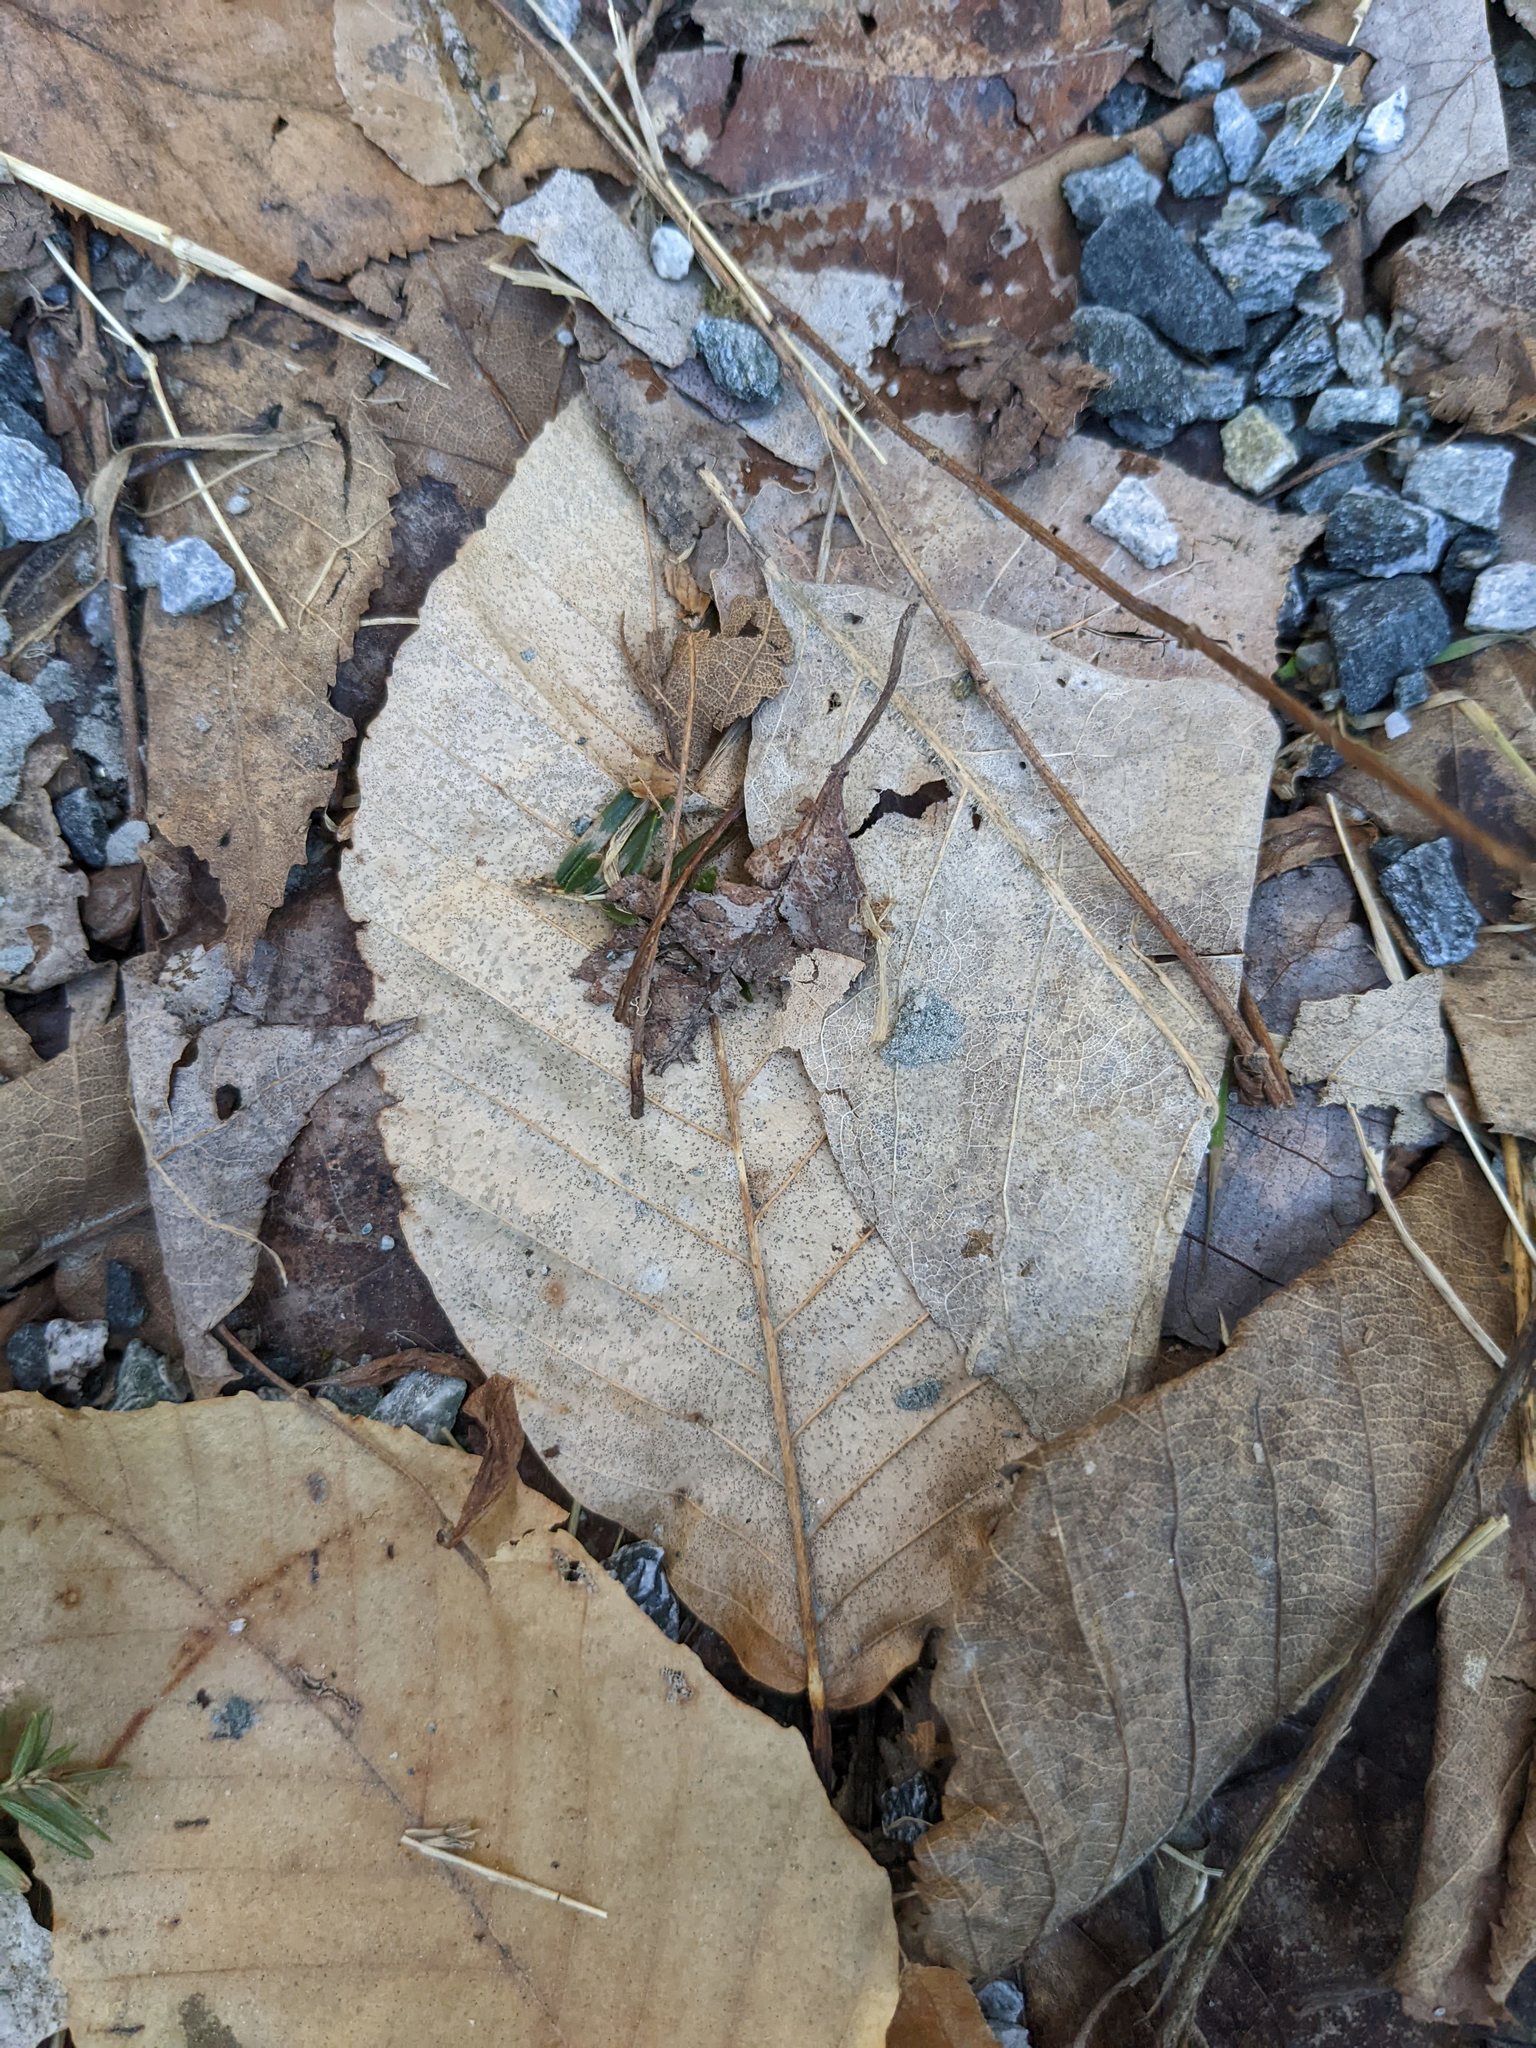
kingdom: Plantae
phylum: Tracheophyta
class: Magnoliopsida
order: Fagales
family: Fagaceae
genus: Fagus
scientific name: Fagus grandifolia
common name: American beech
